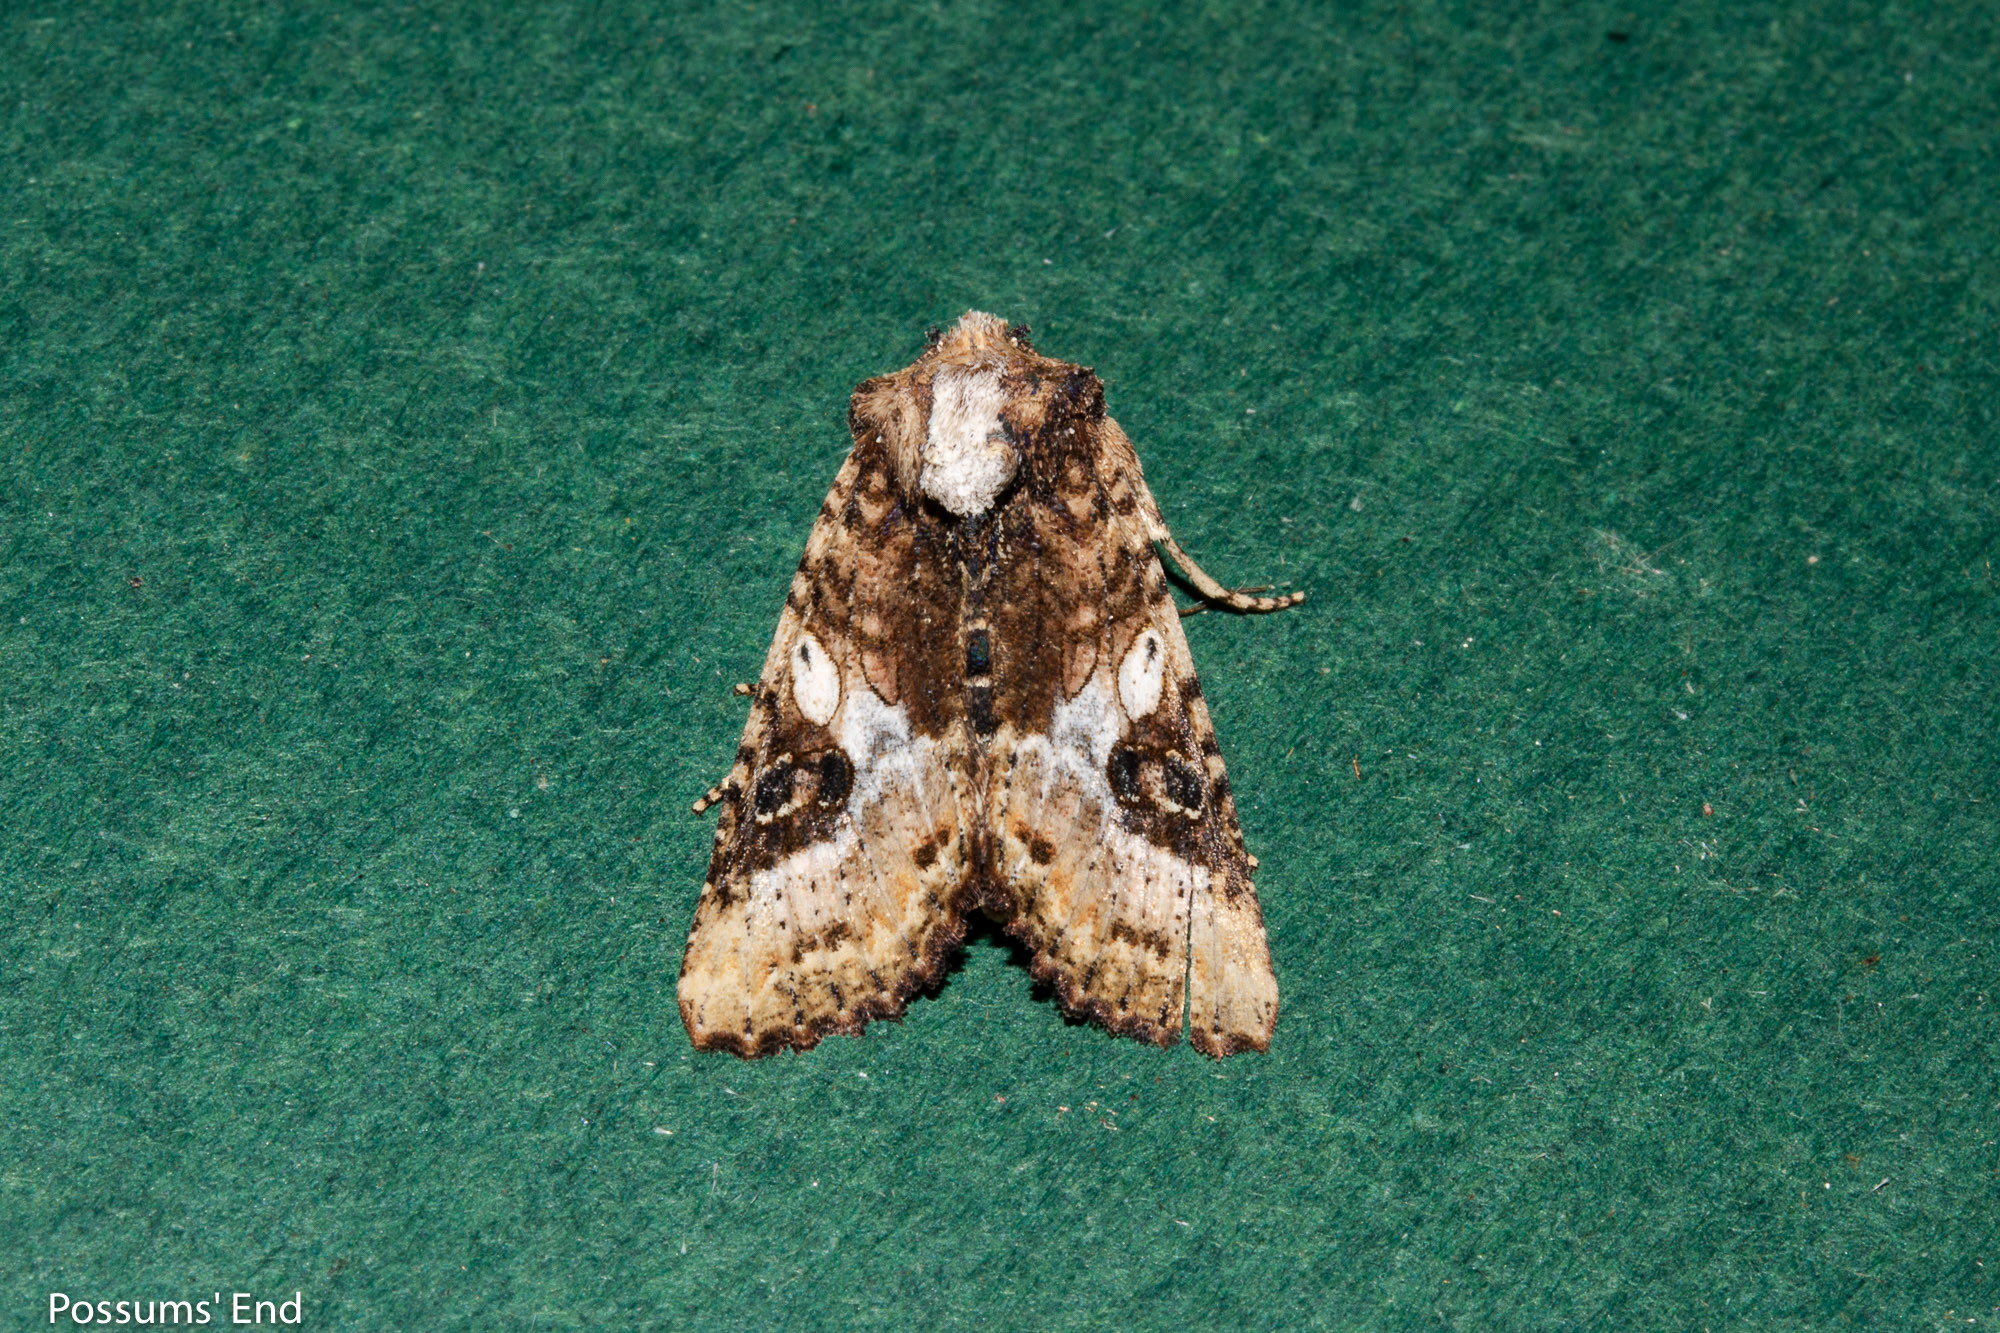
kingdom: Animalia
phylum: Arthropoda
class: Insecta
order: Lepidoptera
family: Noctuidae
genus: Meterana
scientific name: Meterana octans
